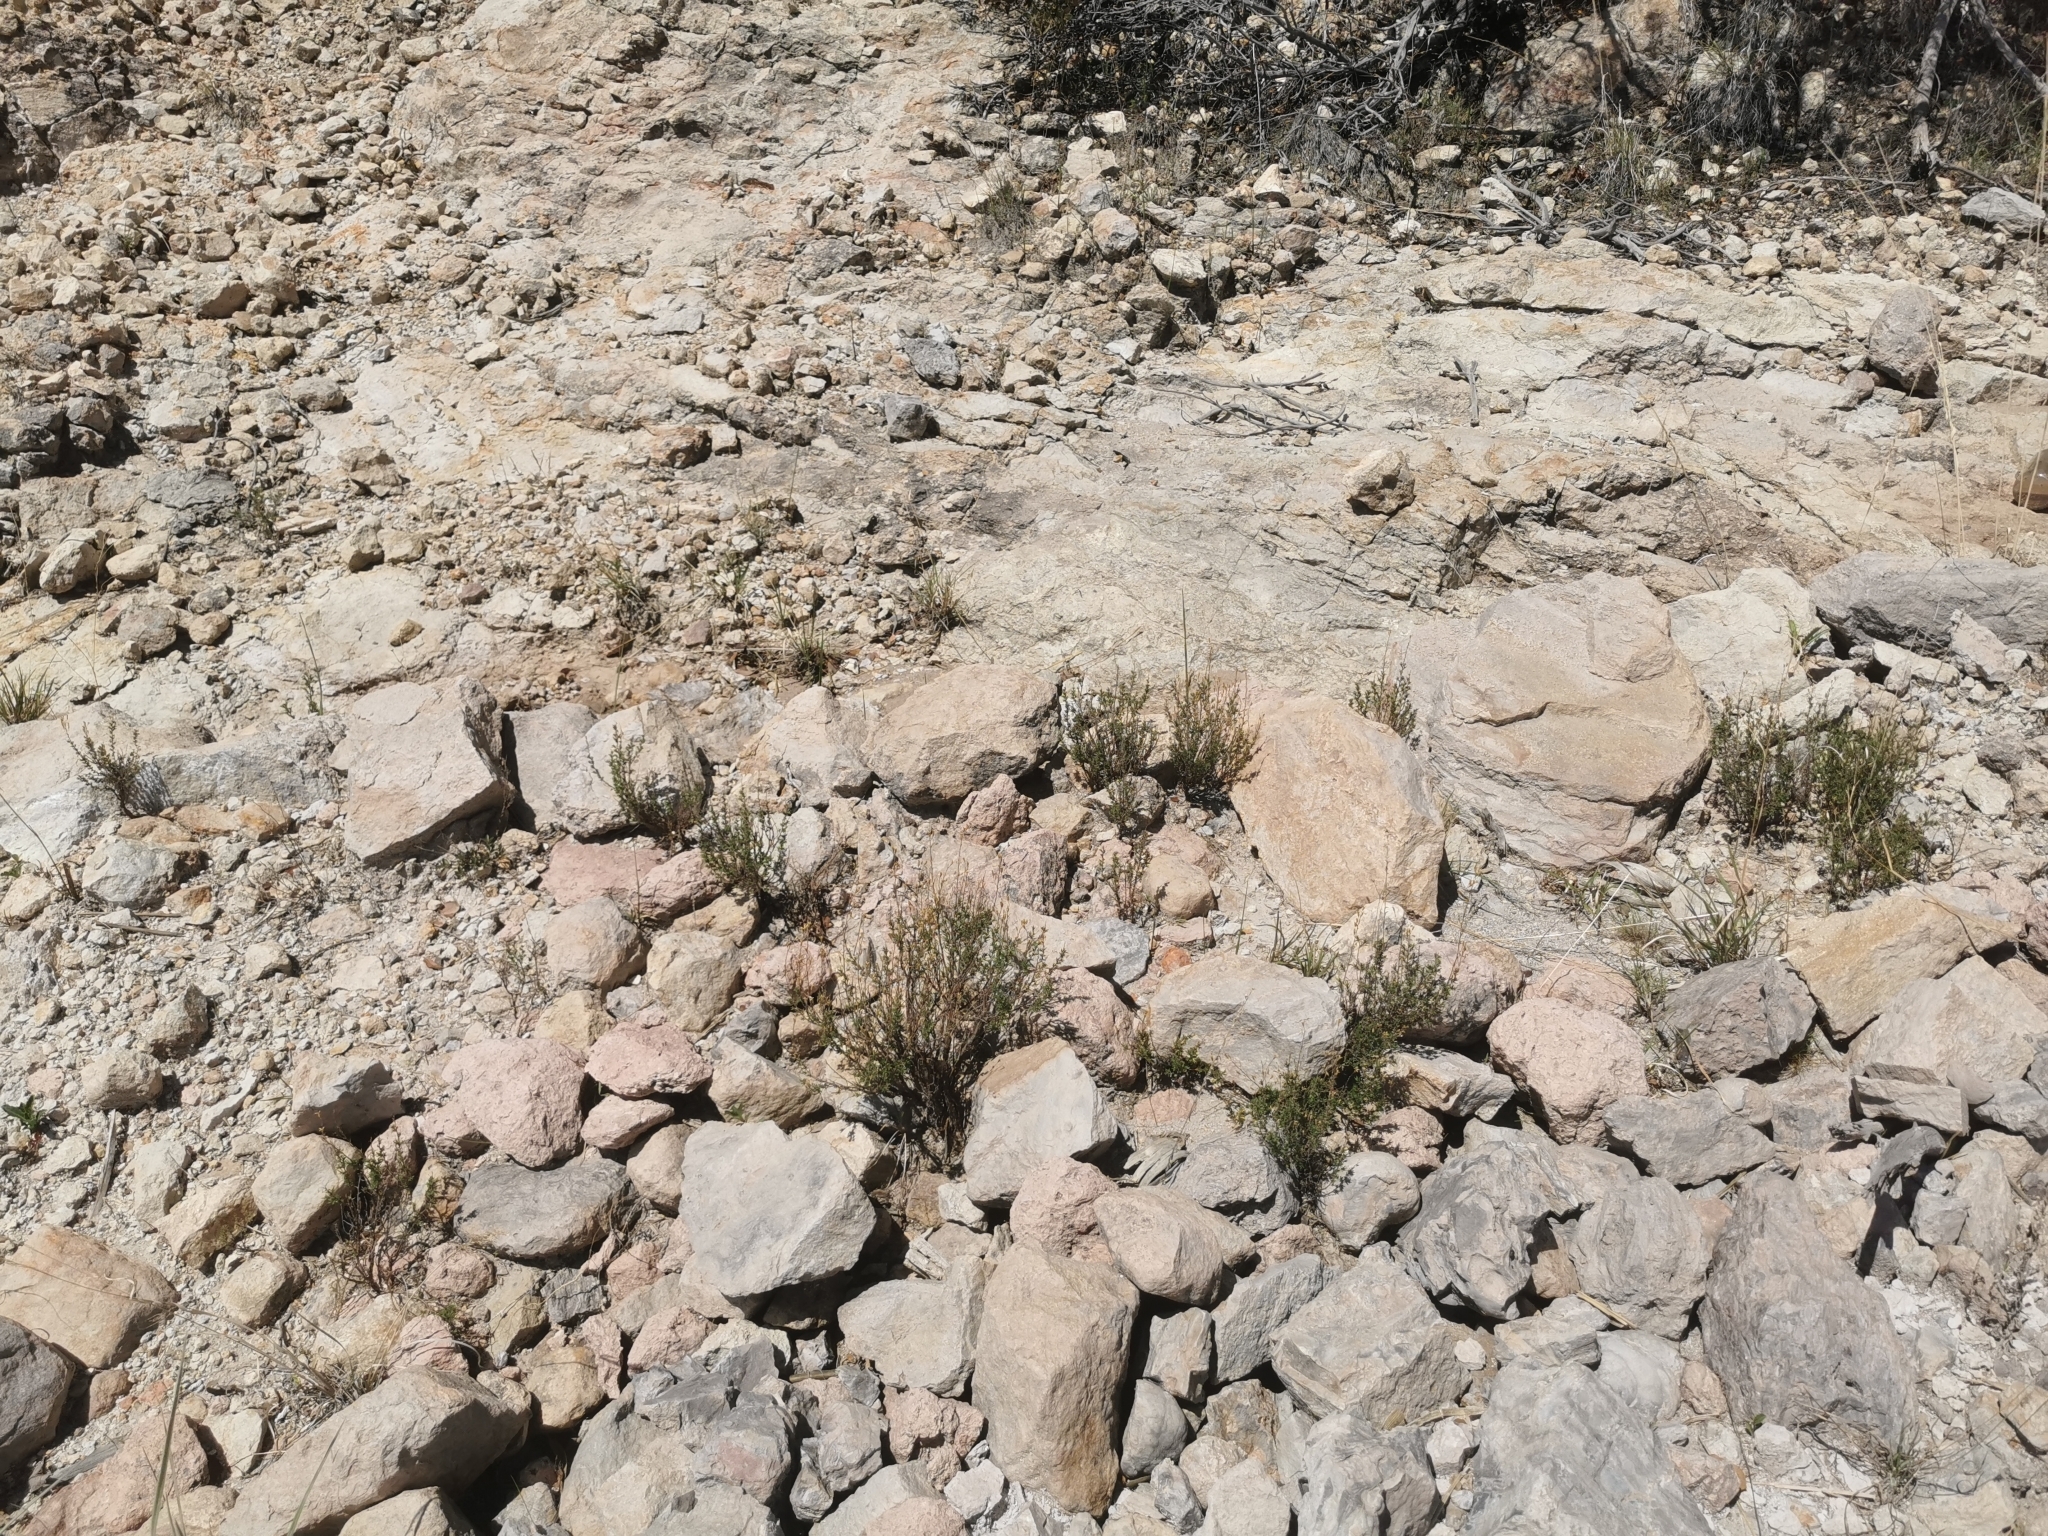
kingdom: Plantae
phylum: Tracheophyta
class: Magnoliopsida
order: Myrtales
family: Onagraceae
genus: Megacorax
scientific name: Megacorax gracielanus
